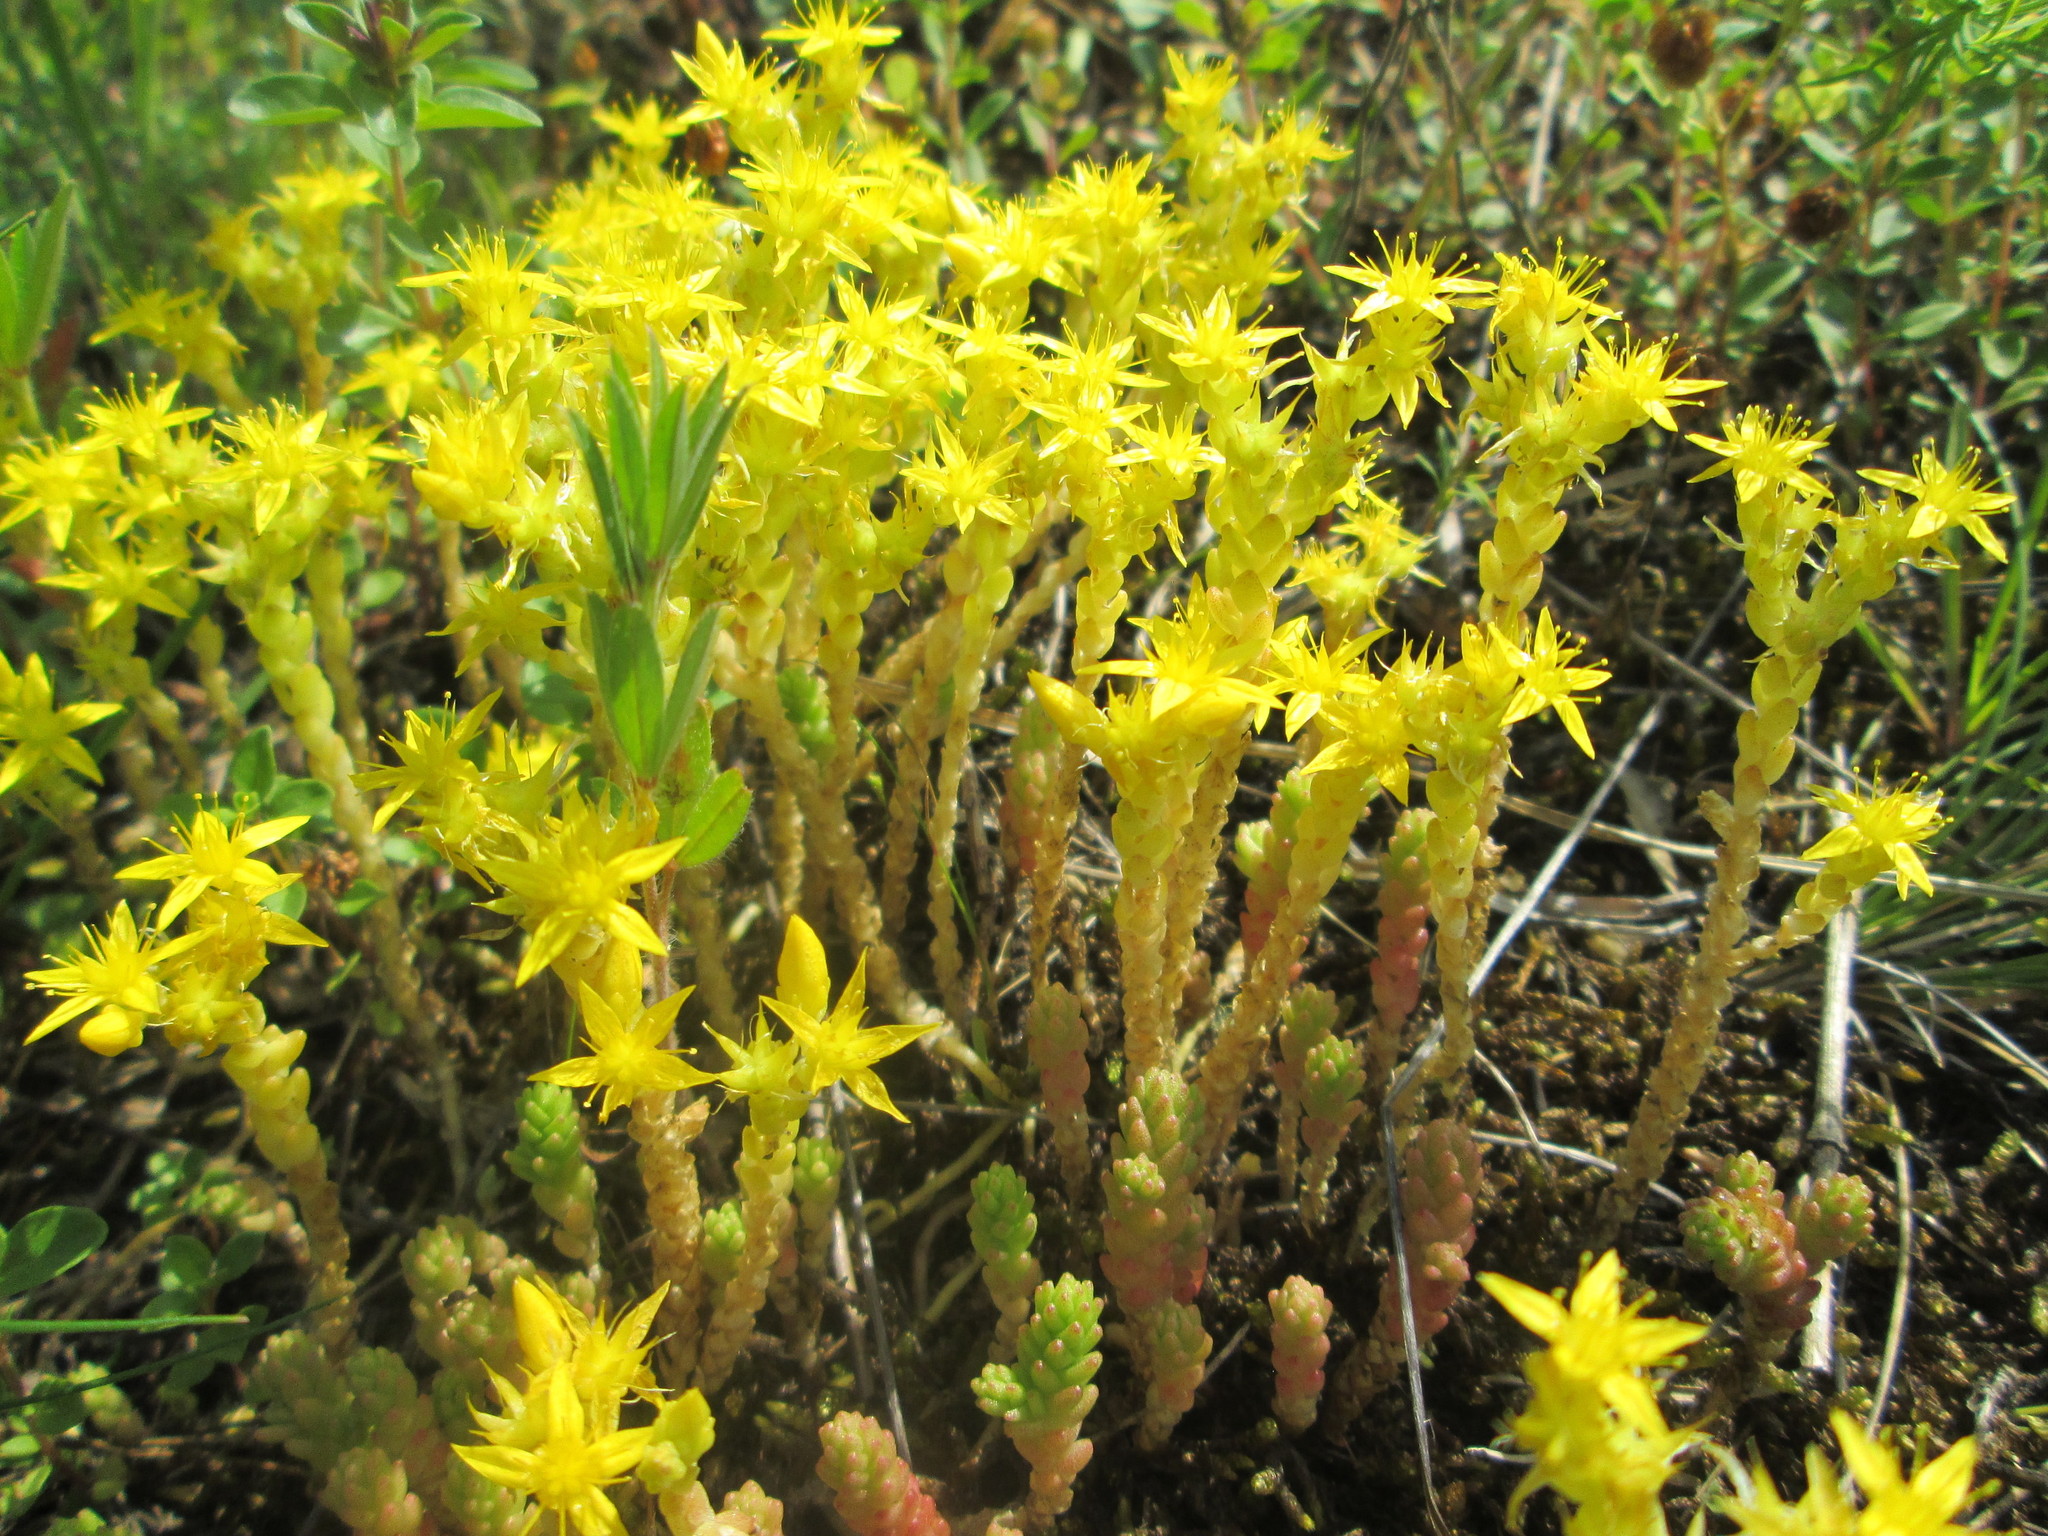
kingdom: Plantae
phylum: Tracheophyta
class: Magnoliopsida
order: Saxifragales
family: Crassulaceae
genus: Sedum
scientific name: Sedum acre
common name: Biting stonecrop
